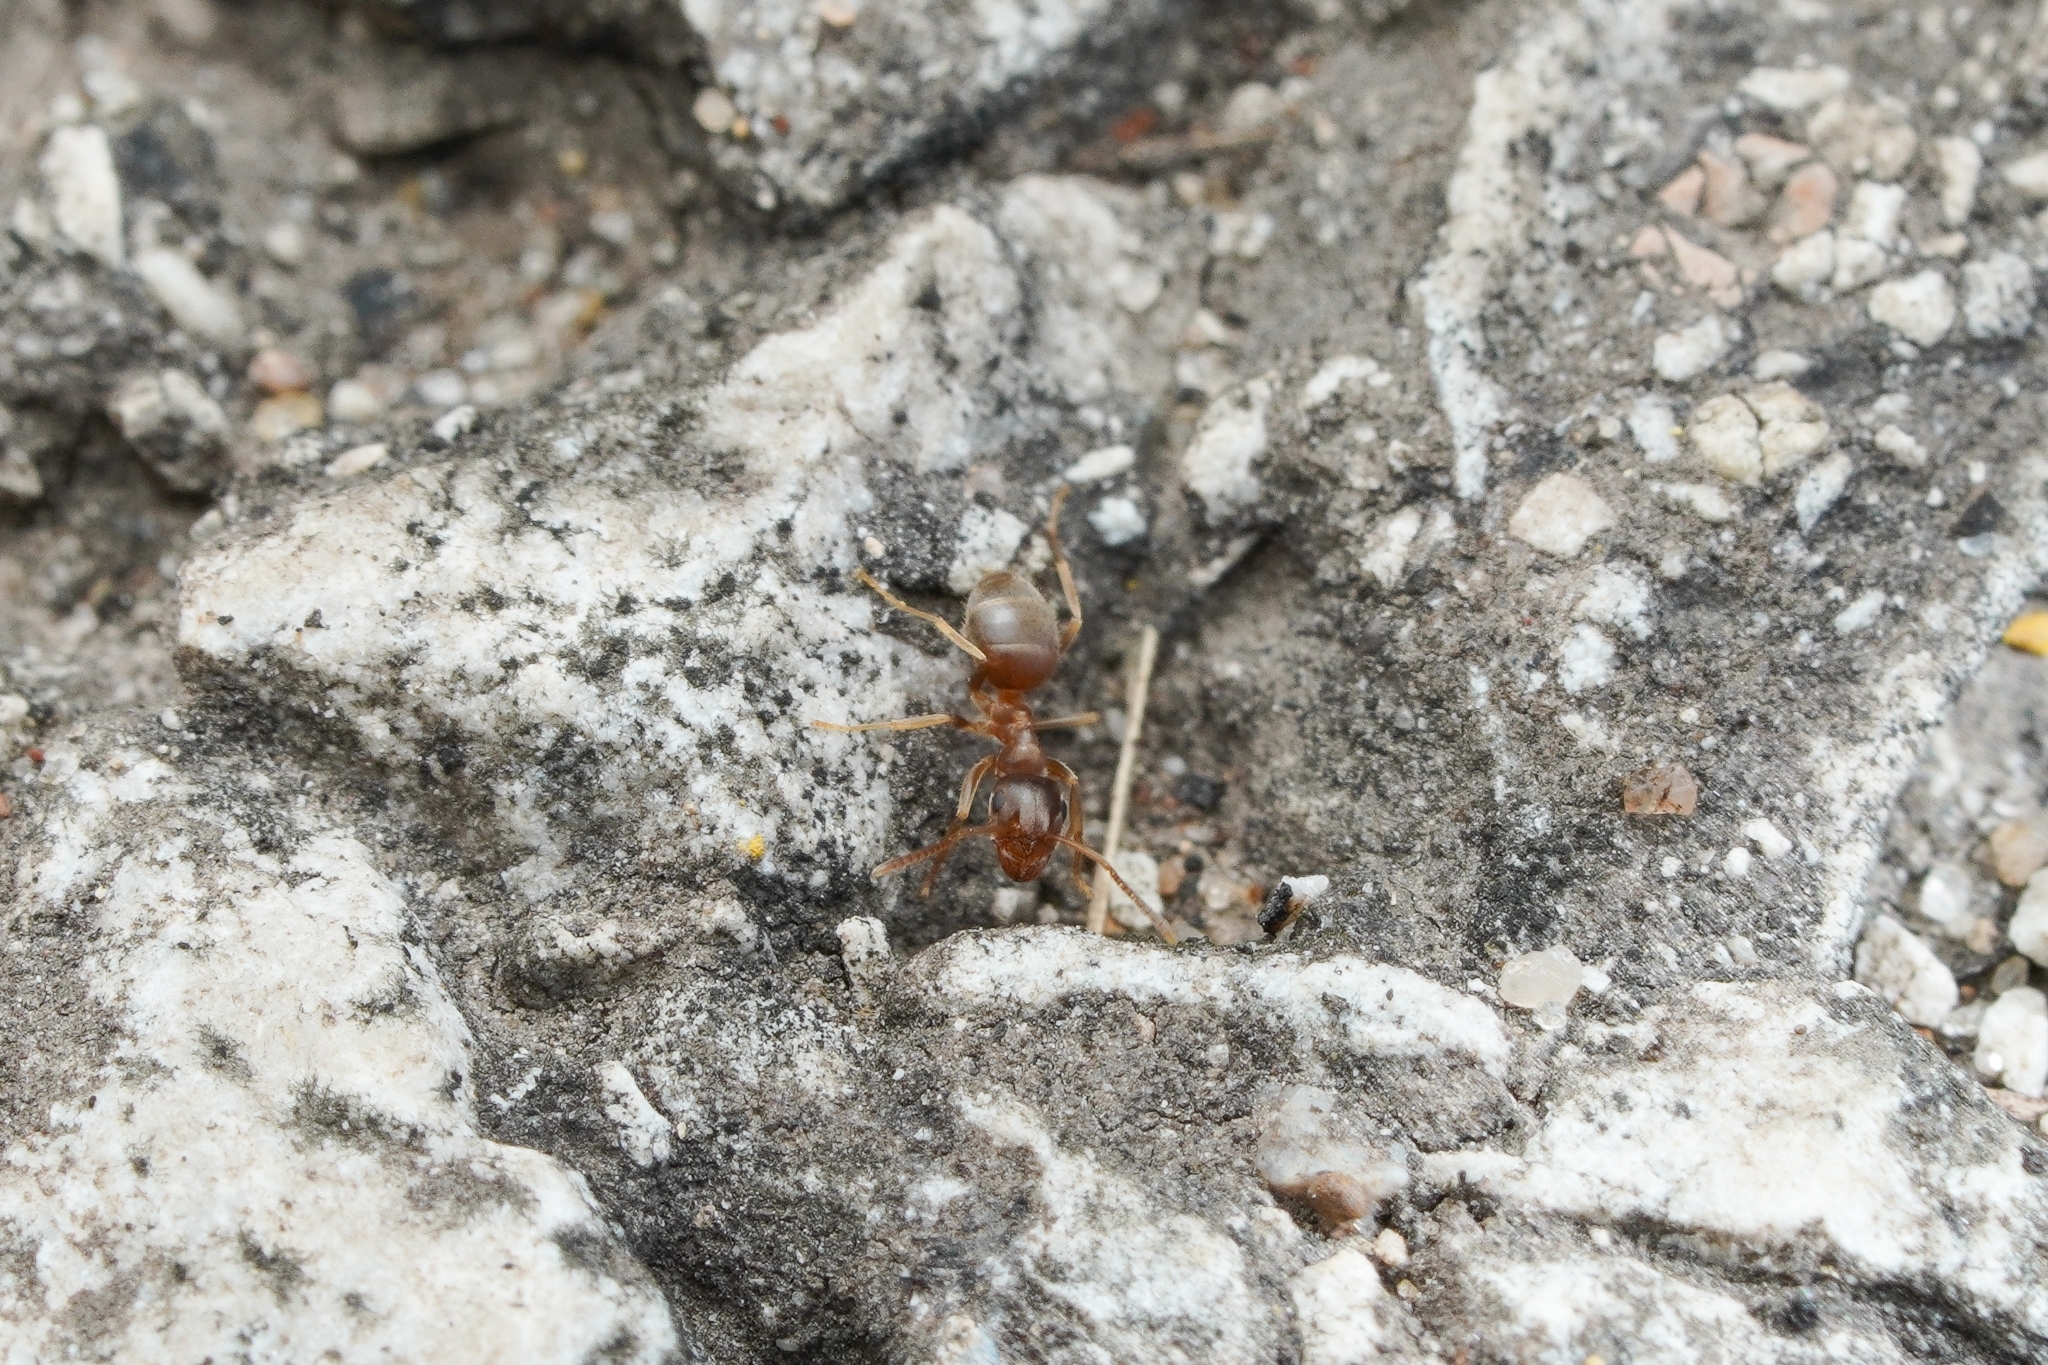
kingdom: Animalia
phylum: Arthropoda
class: Insecta
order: Hymenoptera
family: Formicidae
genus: Lasius
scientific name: Lasius neoniger
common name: Turfgrass ant
